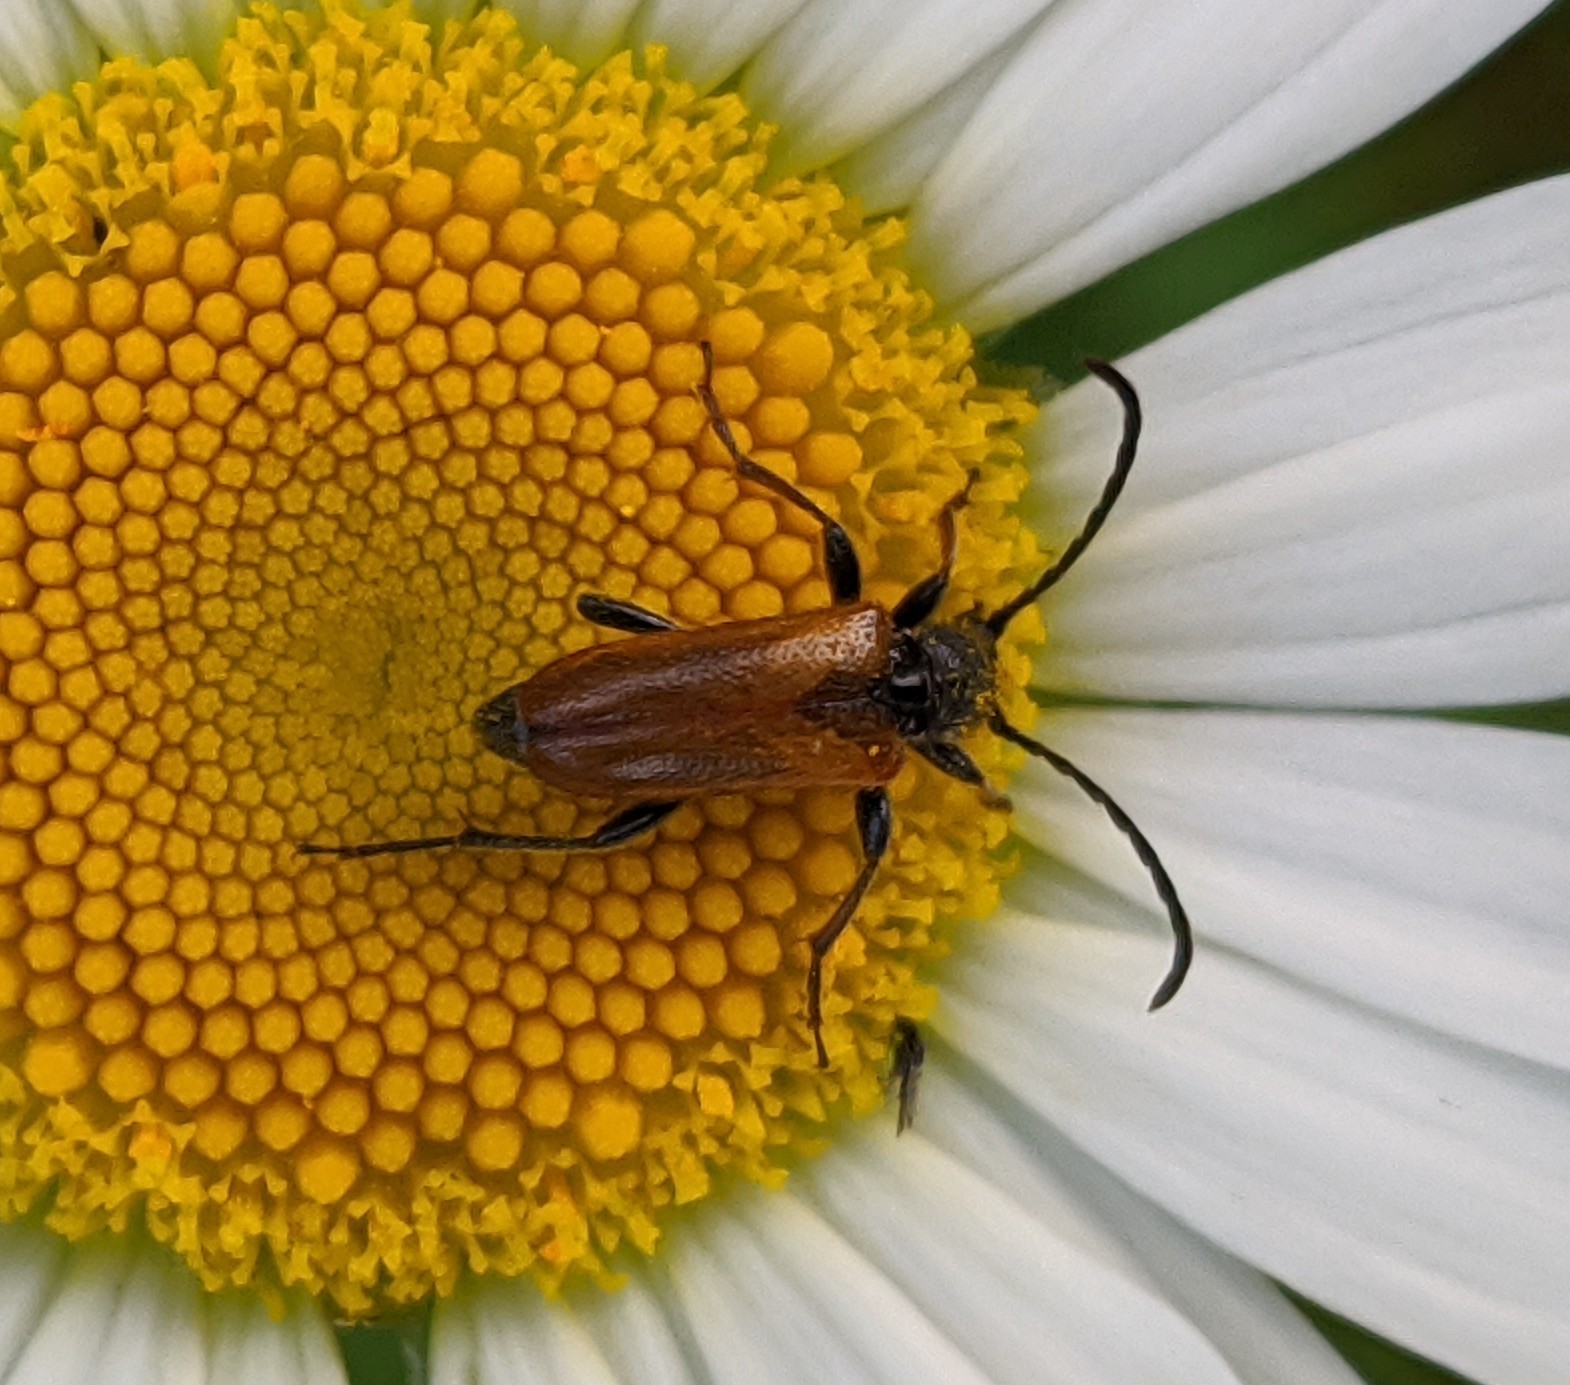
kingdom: Animalia
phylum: Arthropoda
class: Insecta
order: Coleoptera
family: Cerambycidae
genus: Pseudovadonia
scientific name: Pseudovadonia livida
